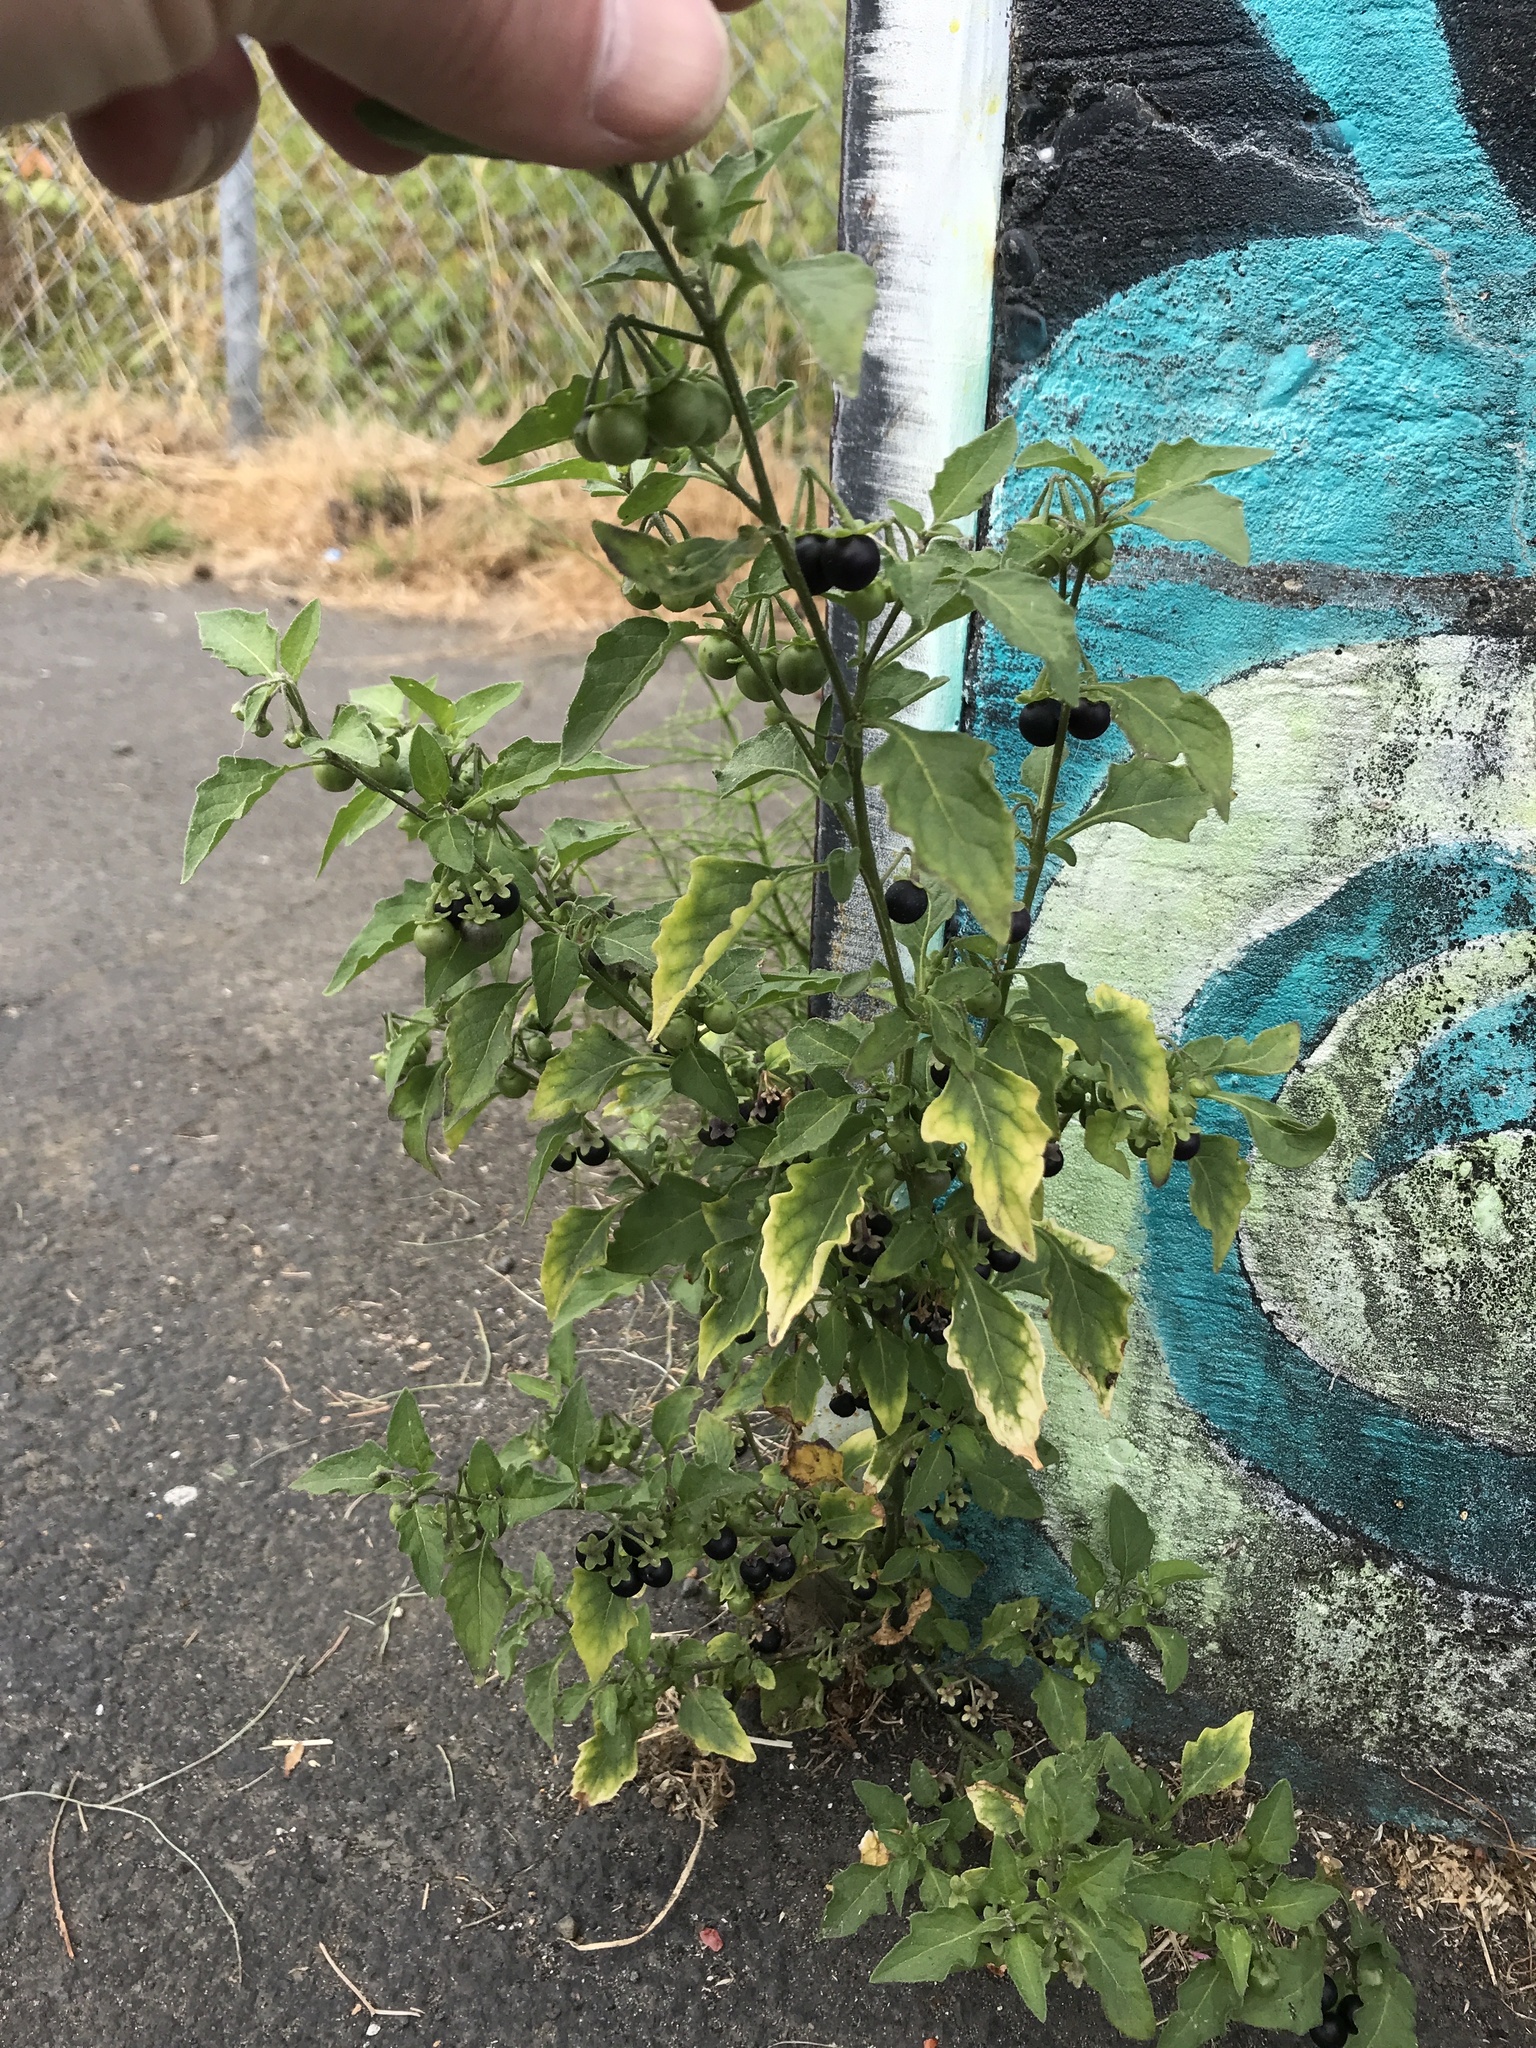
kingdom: Plantae
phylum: Tracheophyta
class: Magnoliopsida
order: Solanales
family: Solanaceae
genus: Solanum
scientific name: Solanum nigrum
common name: Black nightshade
